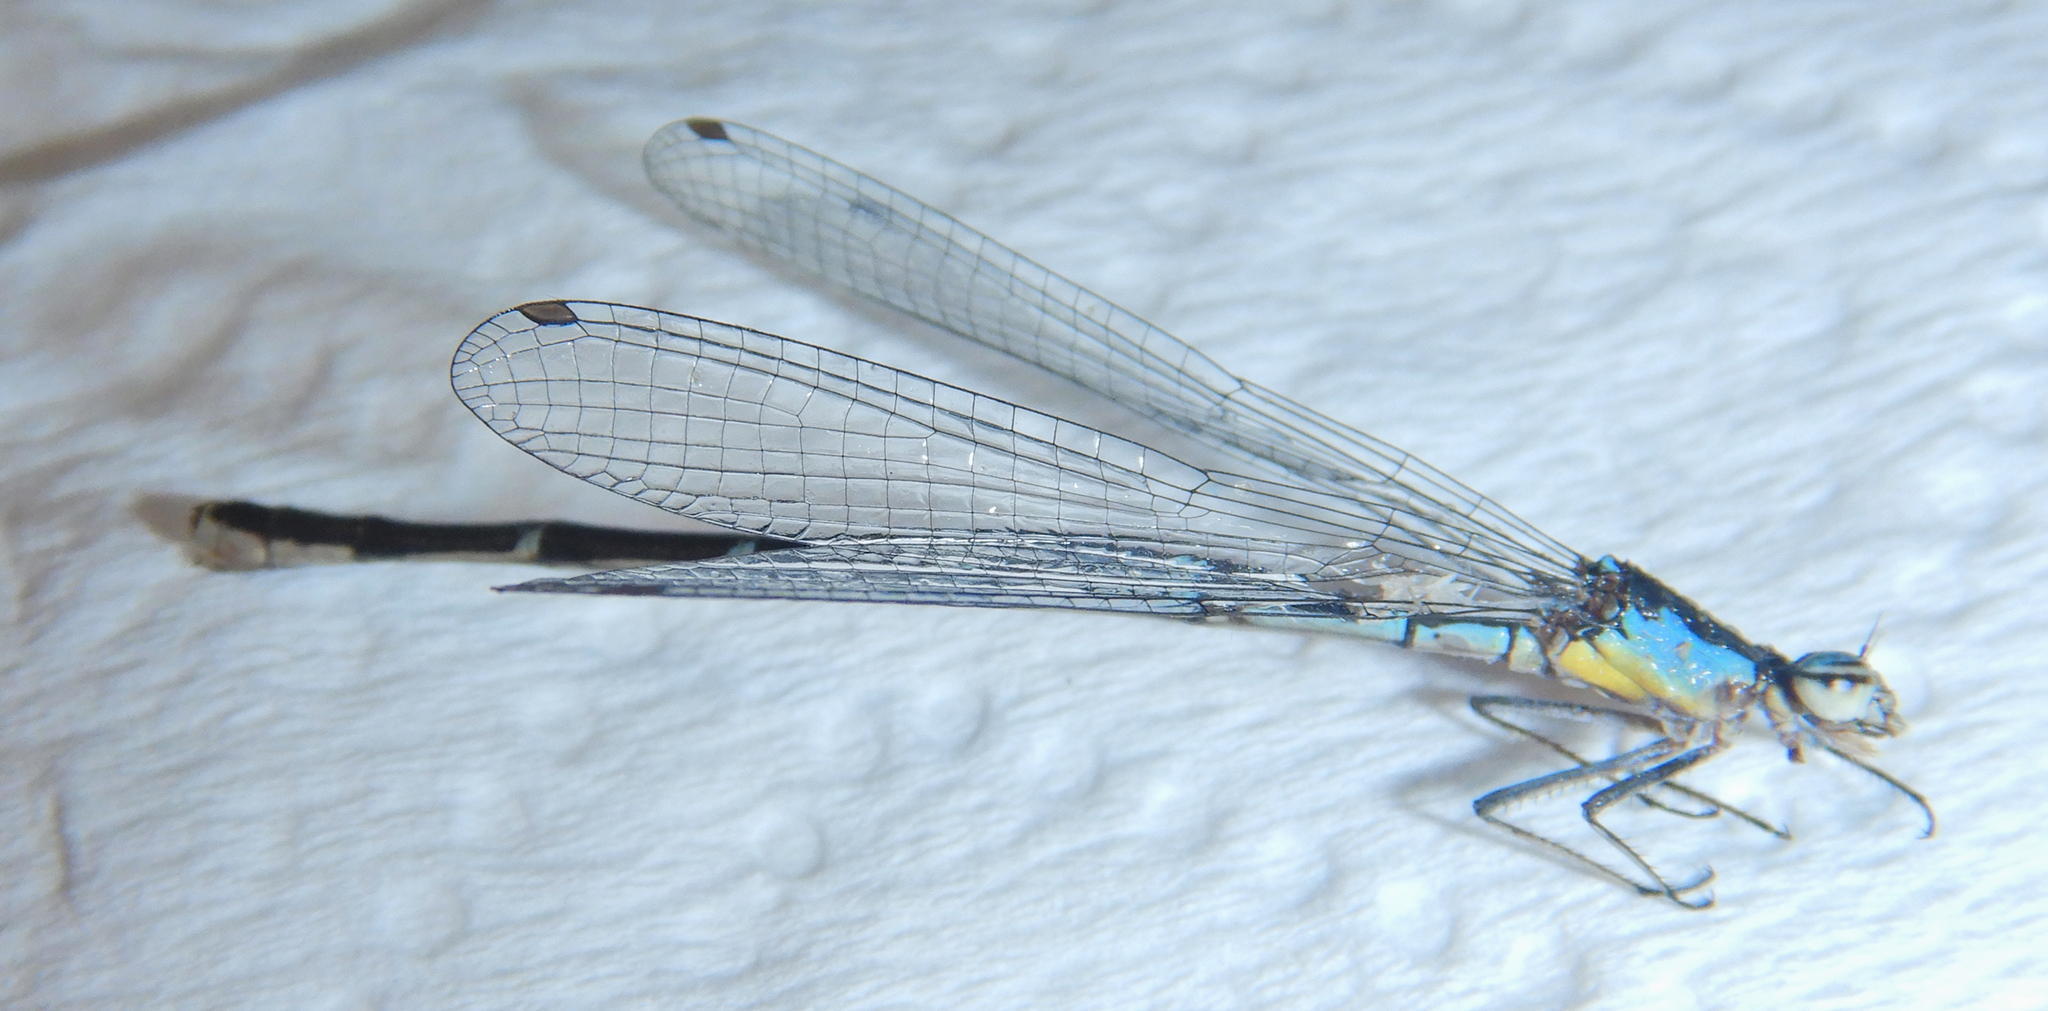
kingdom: Animalia
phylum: Arthropoda
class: Insecta
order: Odonata
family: Coenagrionidae
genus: Chromagrion
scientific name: Chromagrion conditum
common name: Aurora damsel
